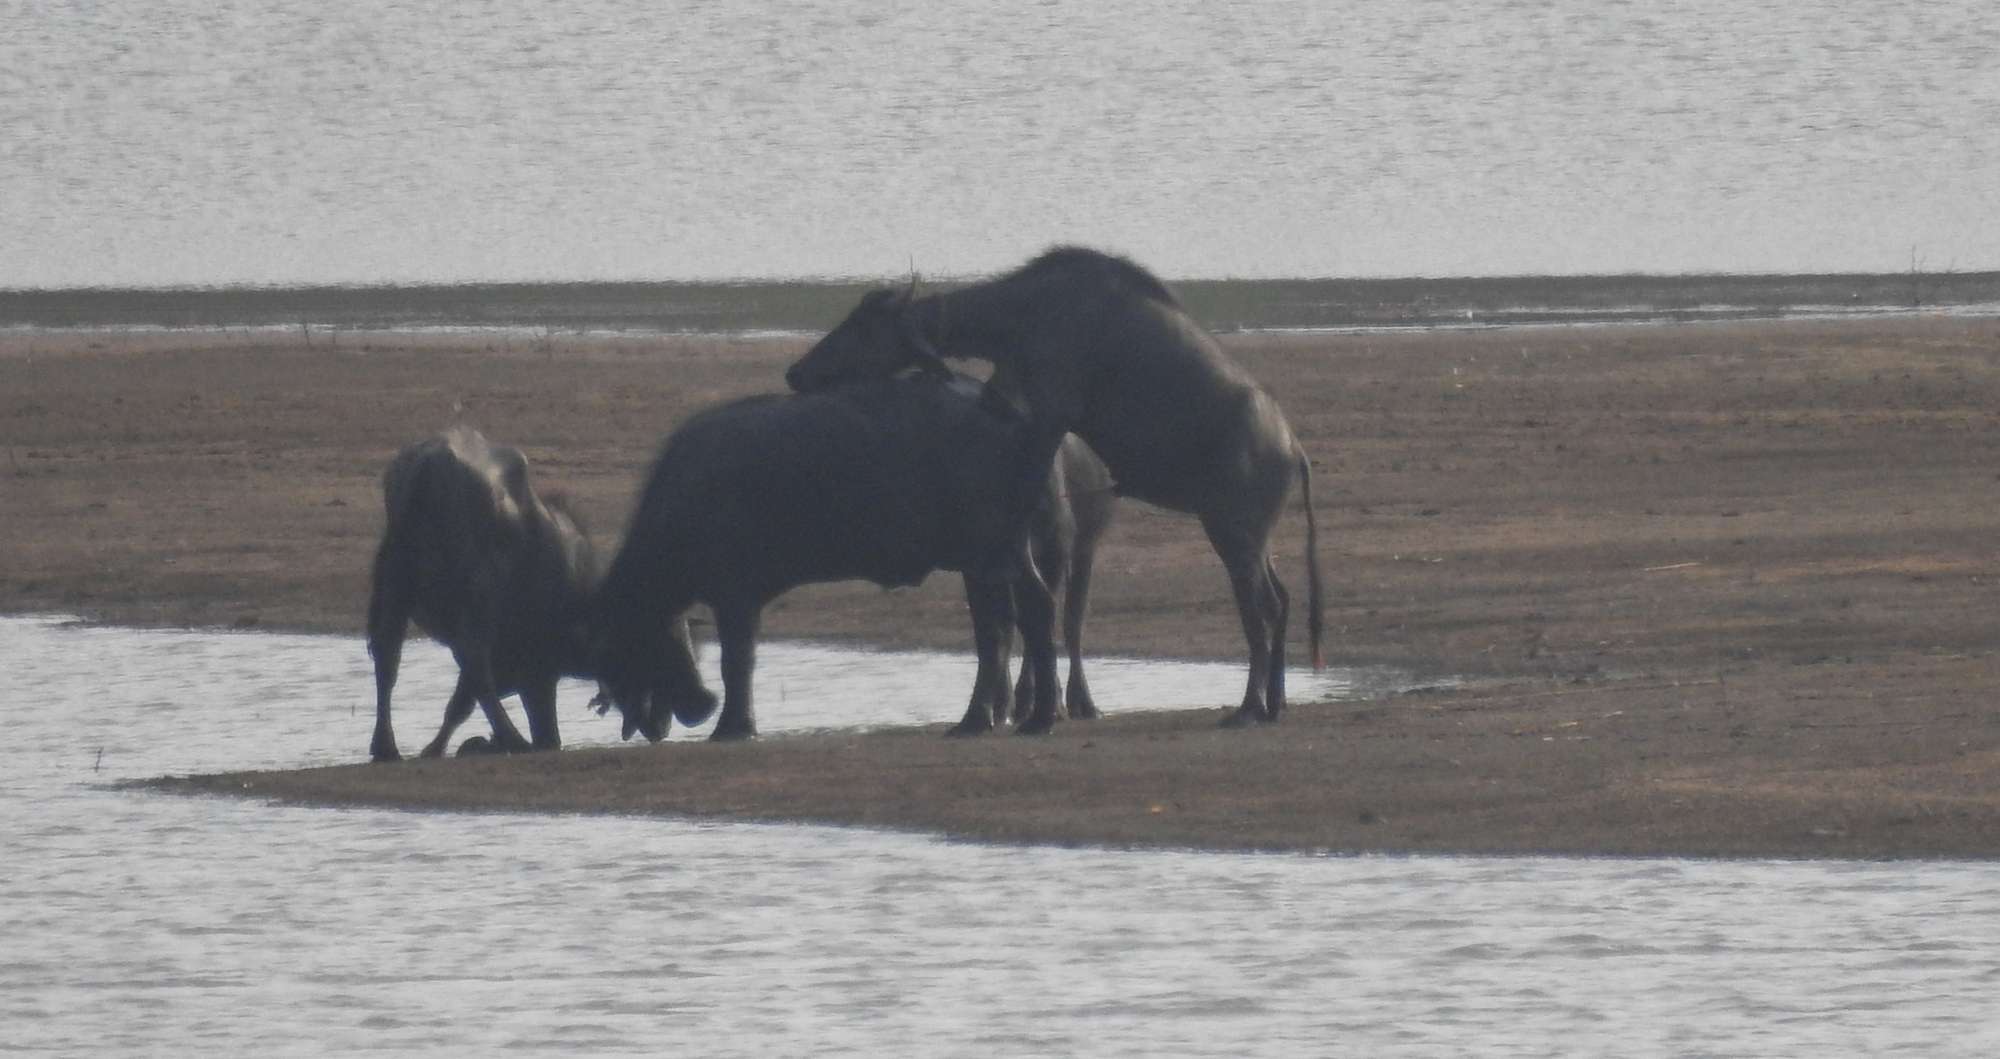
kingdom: Animalia
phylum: Chordata
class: Mammalia
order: Artiodactyla
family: Bovidae
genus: Bubalus
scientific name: Bubalus bubalis
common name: Water buffalo
